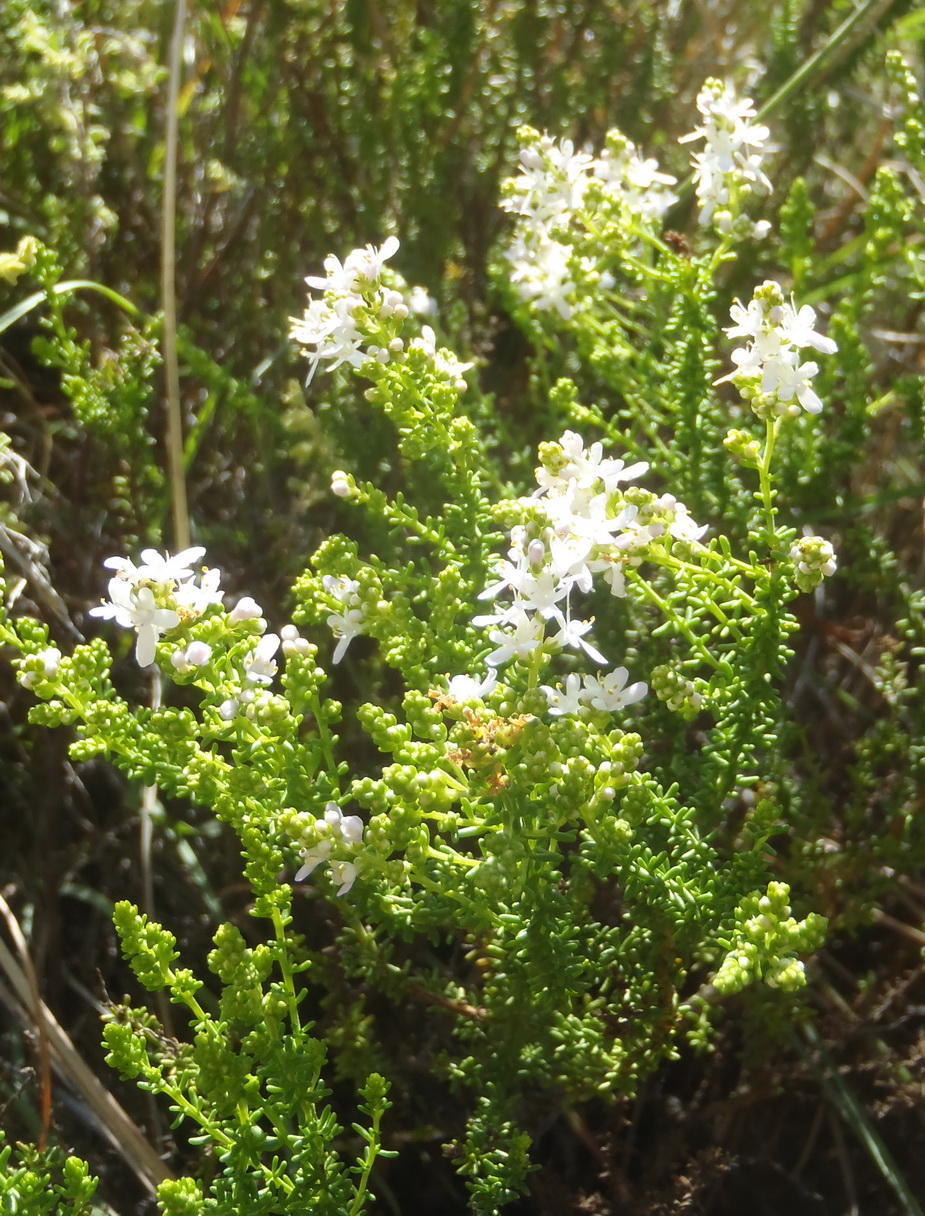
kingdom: Plantae
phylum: Tracheophyta
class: Magnoliopsida
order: Lamiales
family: Scrophulariaceae
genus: Selago
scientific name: Selago brevifolia
